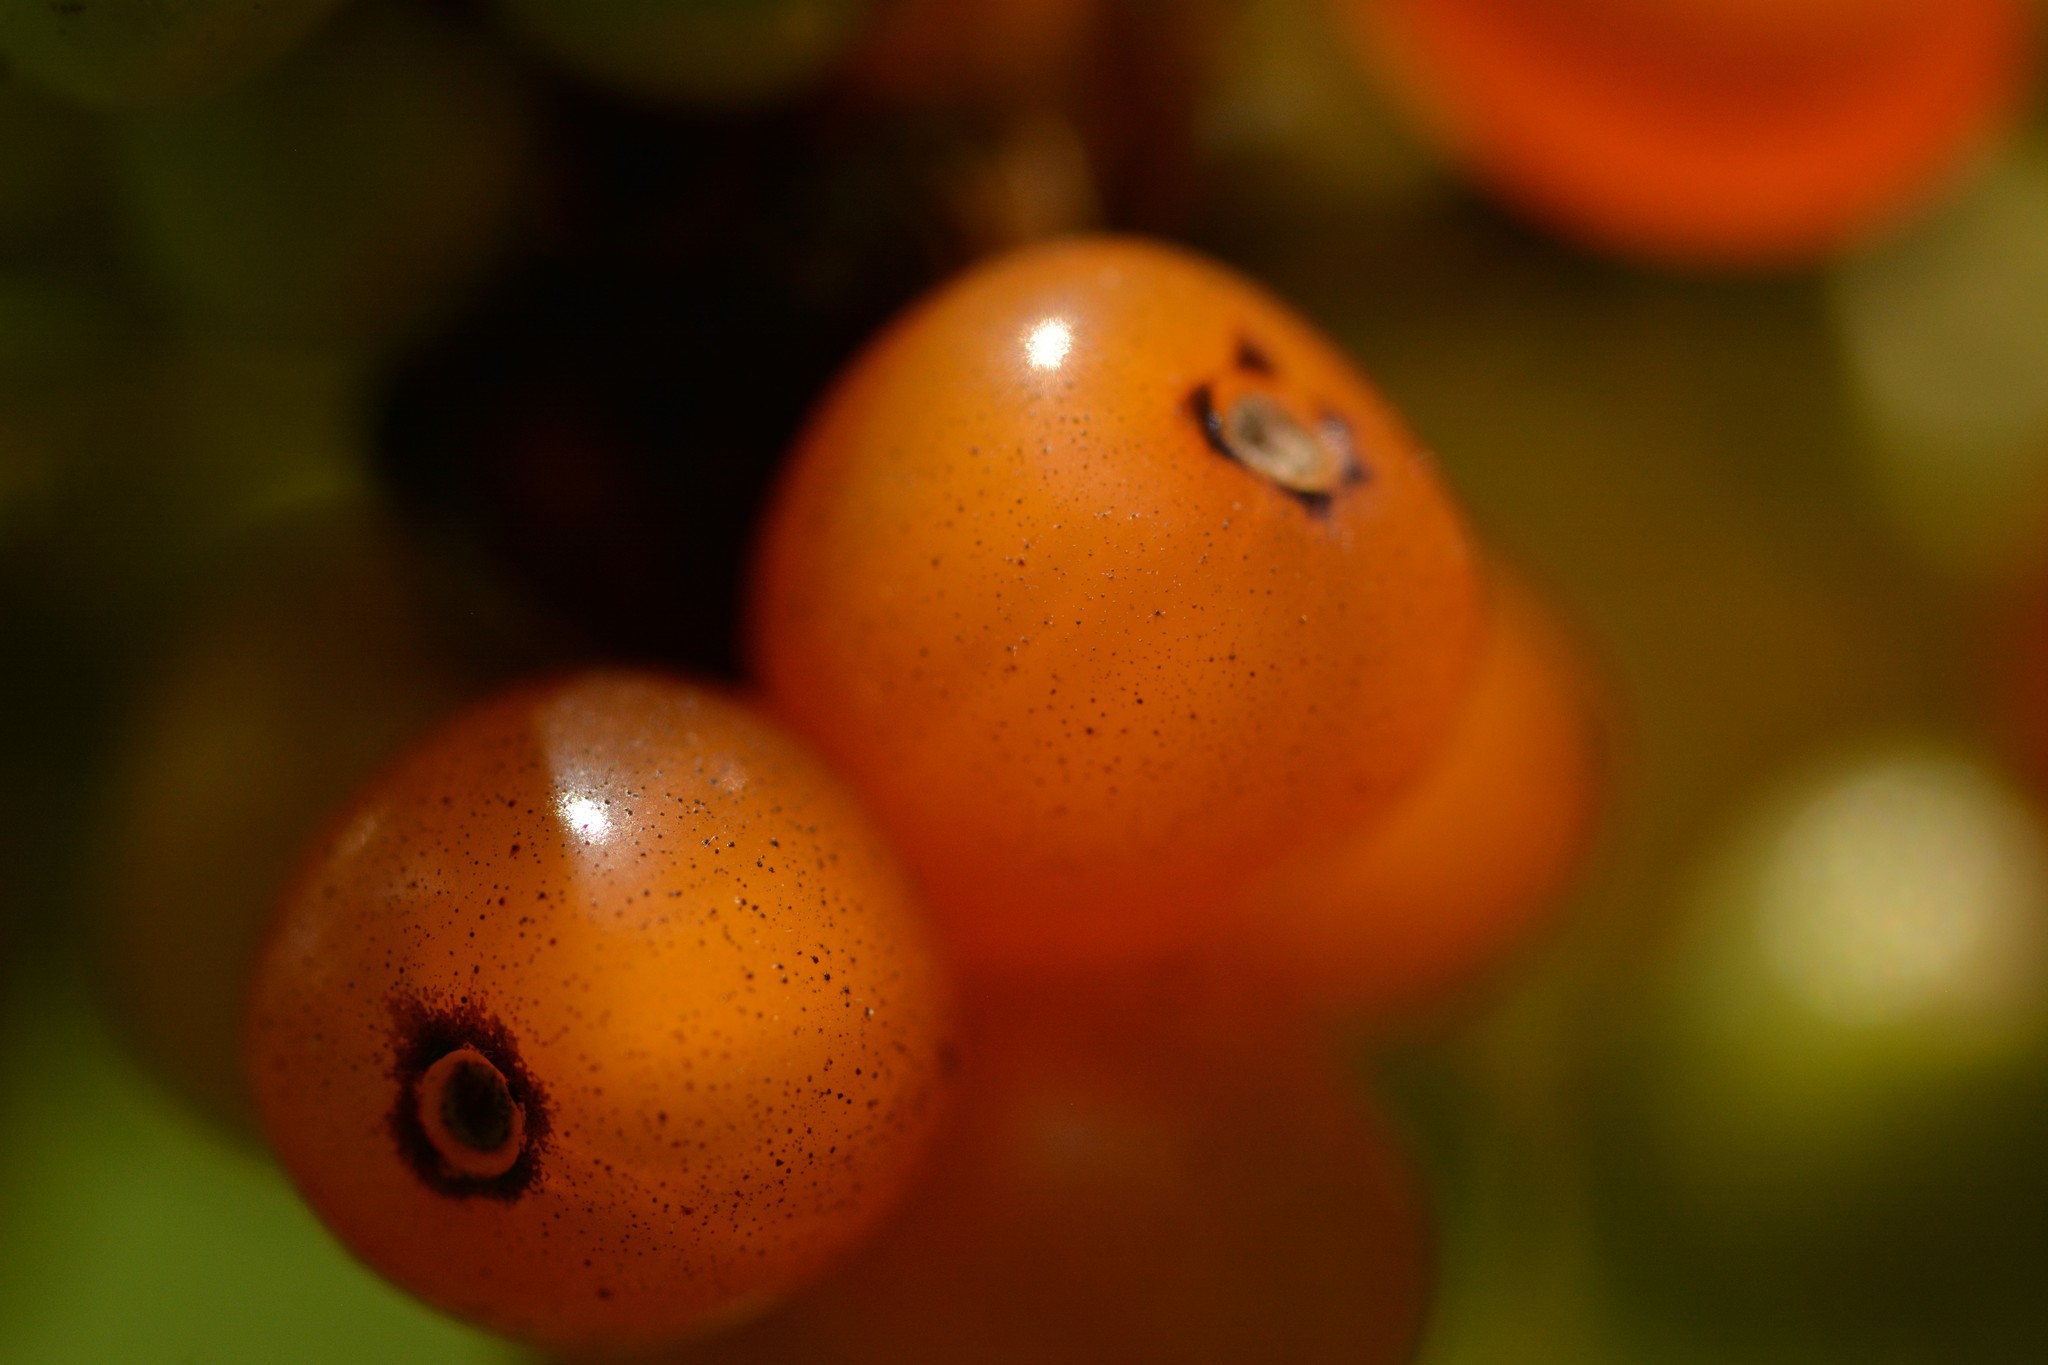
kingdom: Plantae
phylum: Tracheophyta
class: Magnoliopsida
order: Gentianales
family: Rubiaceae
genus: Coprosma
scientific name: Coprosma repens
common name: Tree bedstraw
